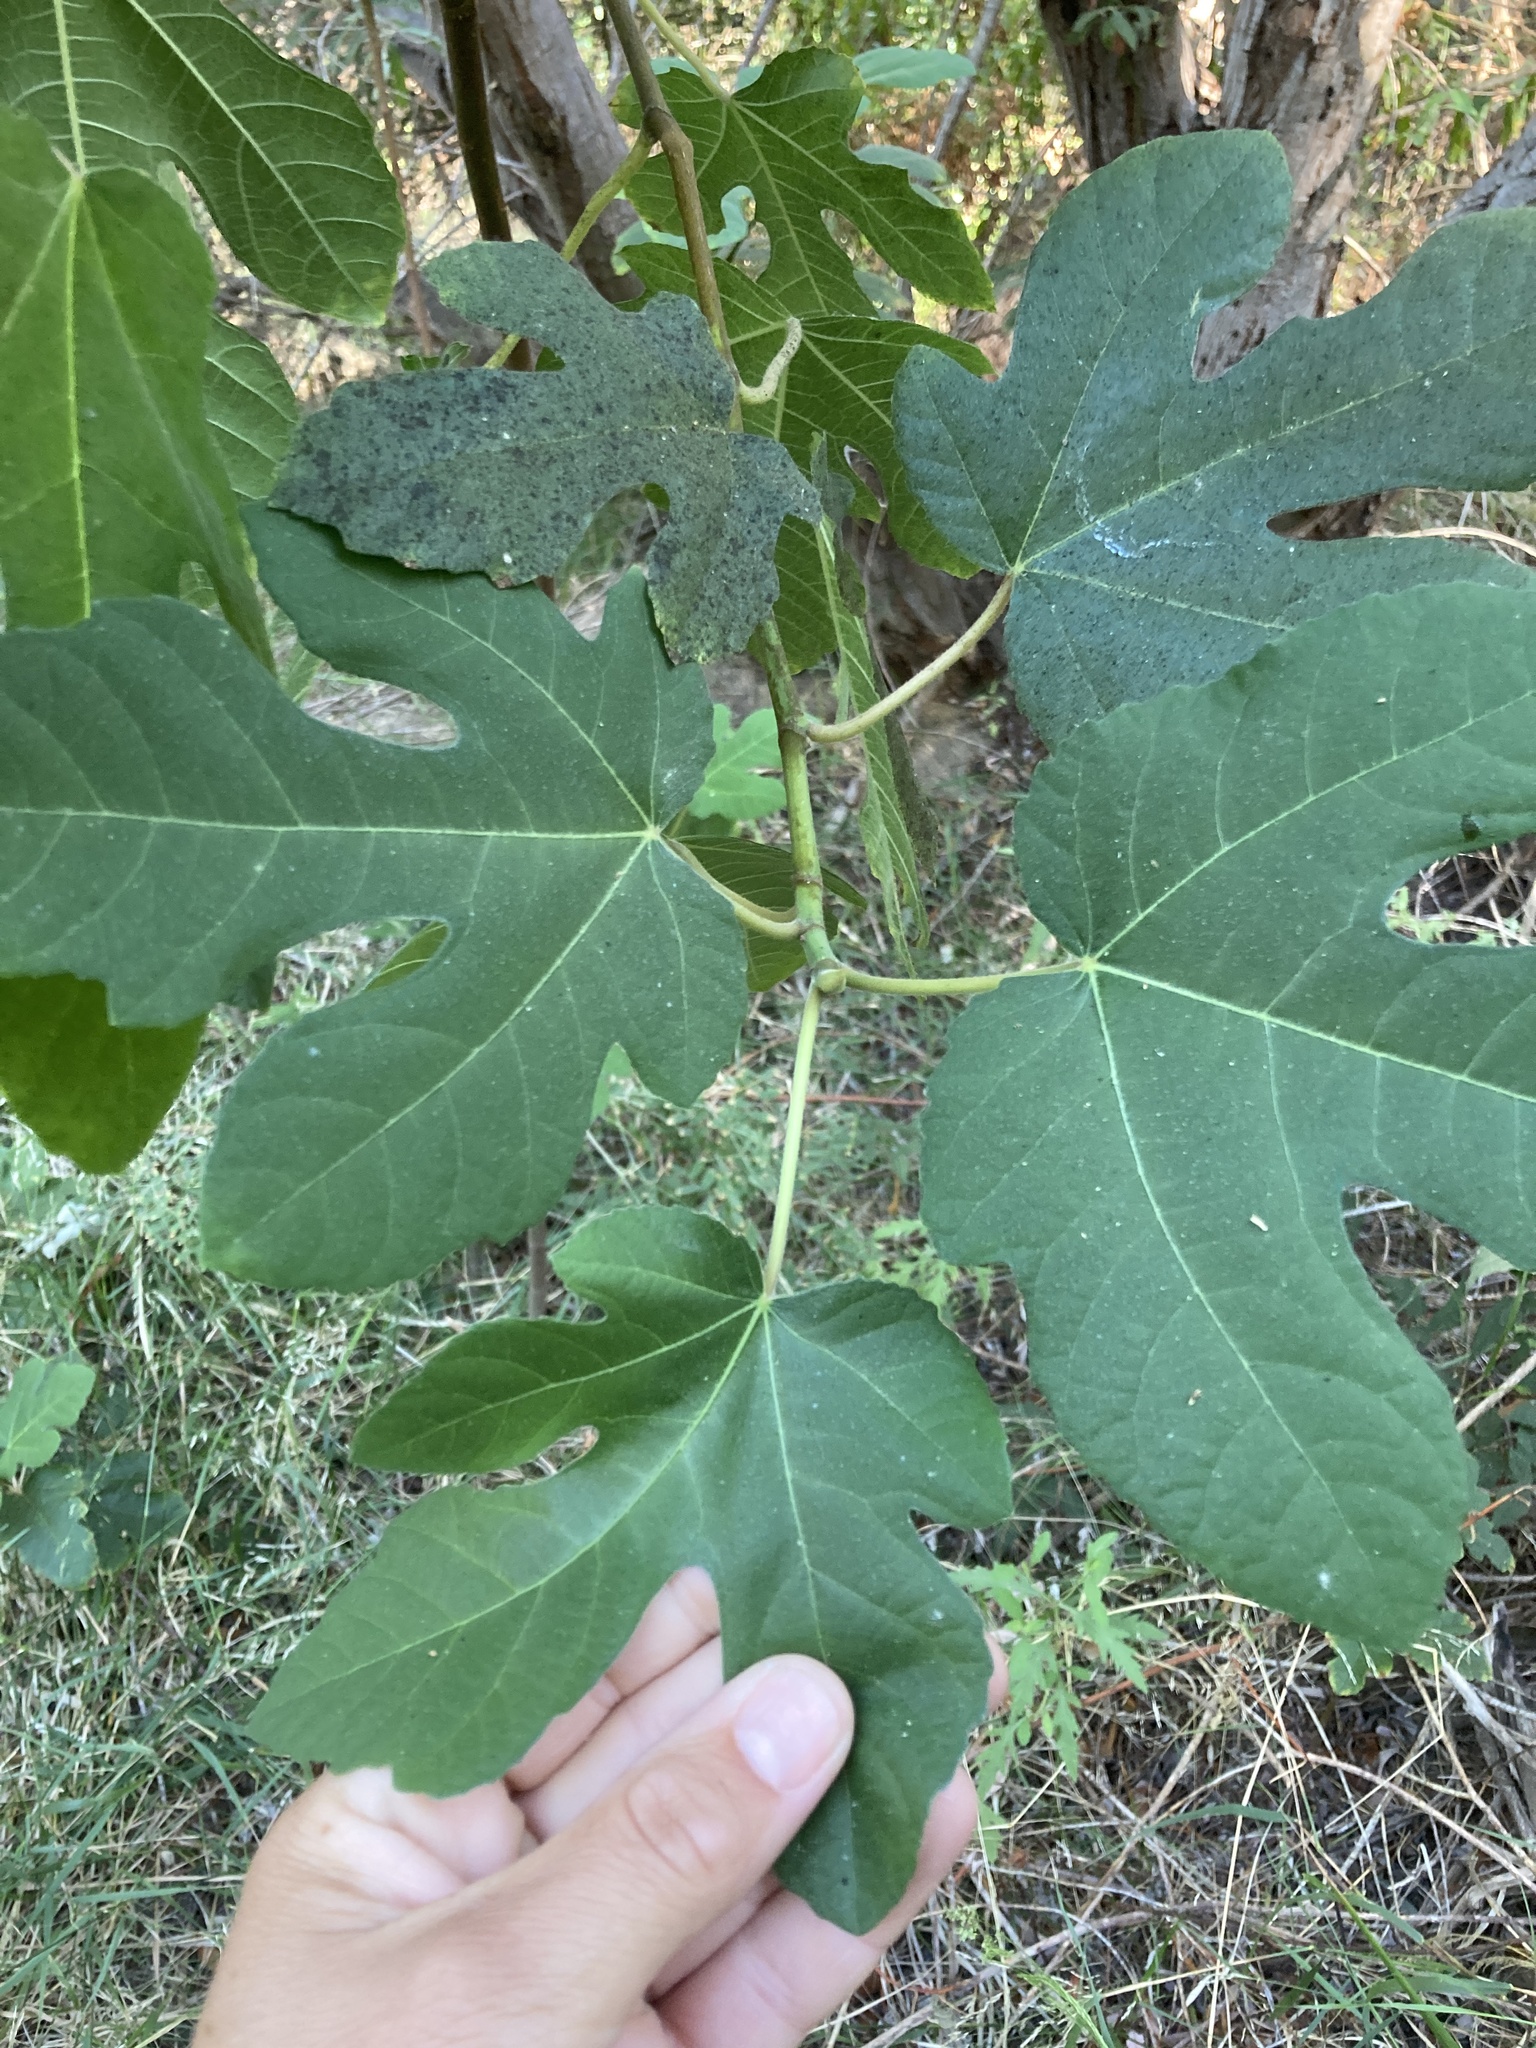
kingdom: Plantae
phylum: Tracheophyta
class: Magnoliopsida
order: Rosales
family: Moraceae
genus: Ficus
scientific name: Ficus carica
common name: Fig
